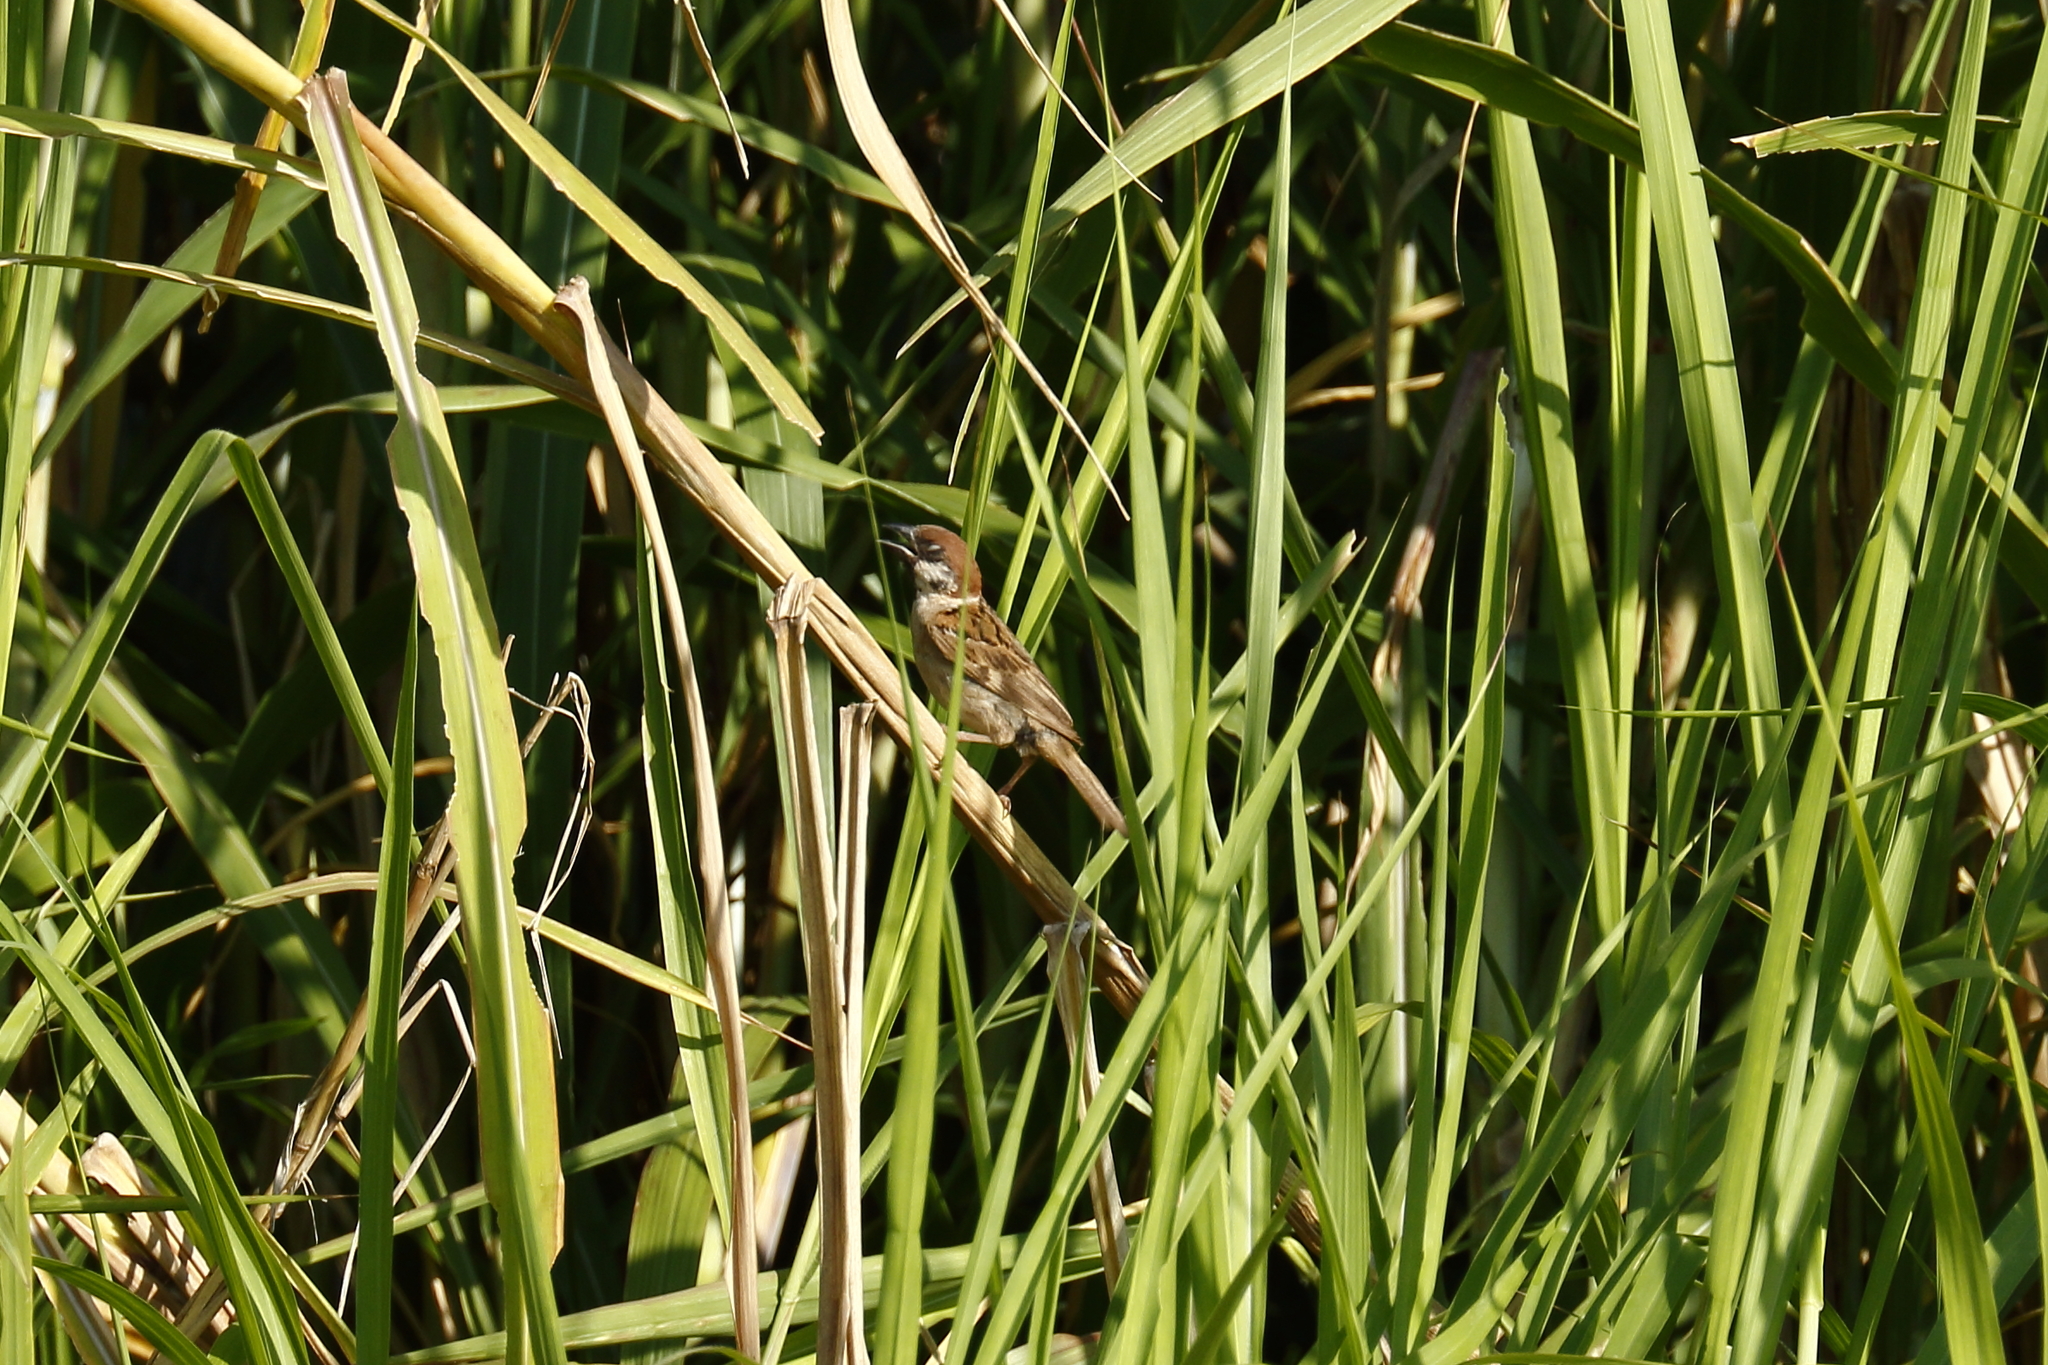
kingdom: Animalia
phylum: Chordata
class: Aves
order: Passeriformes
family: Passeridae
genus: Passer
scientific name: Passer montanus
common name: Eurasian tree sparrow
